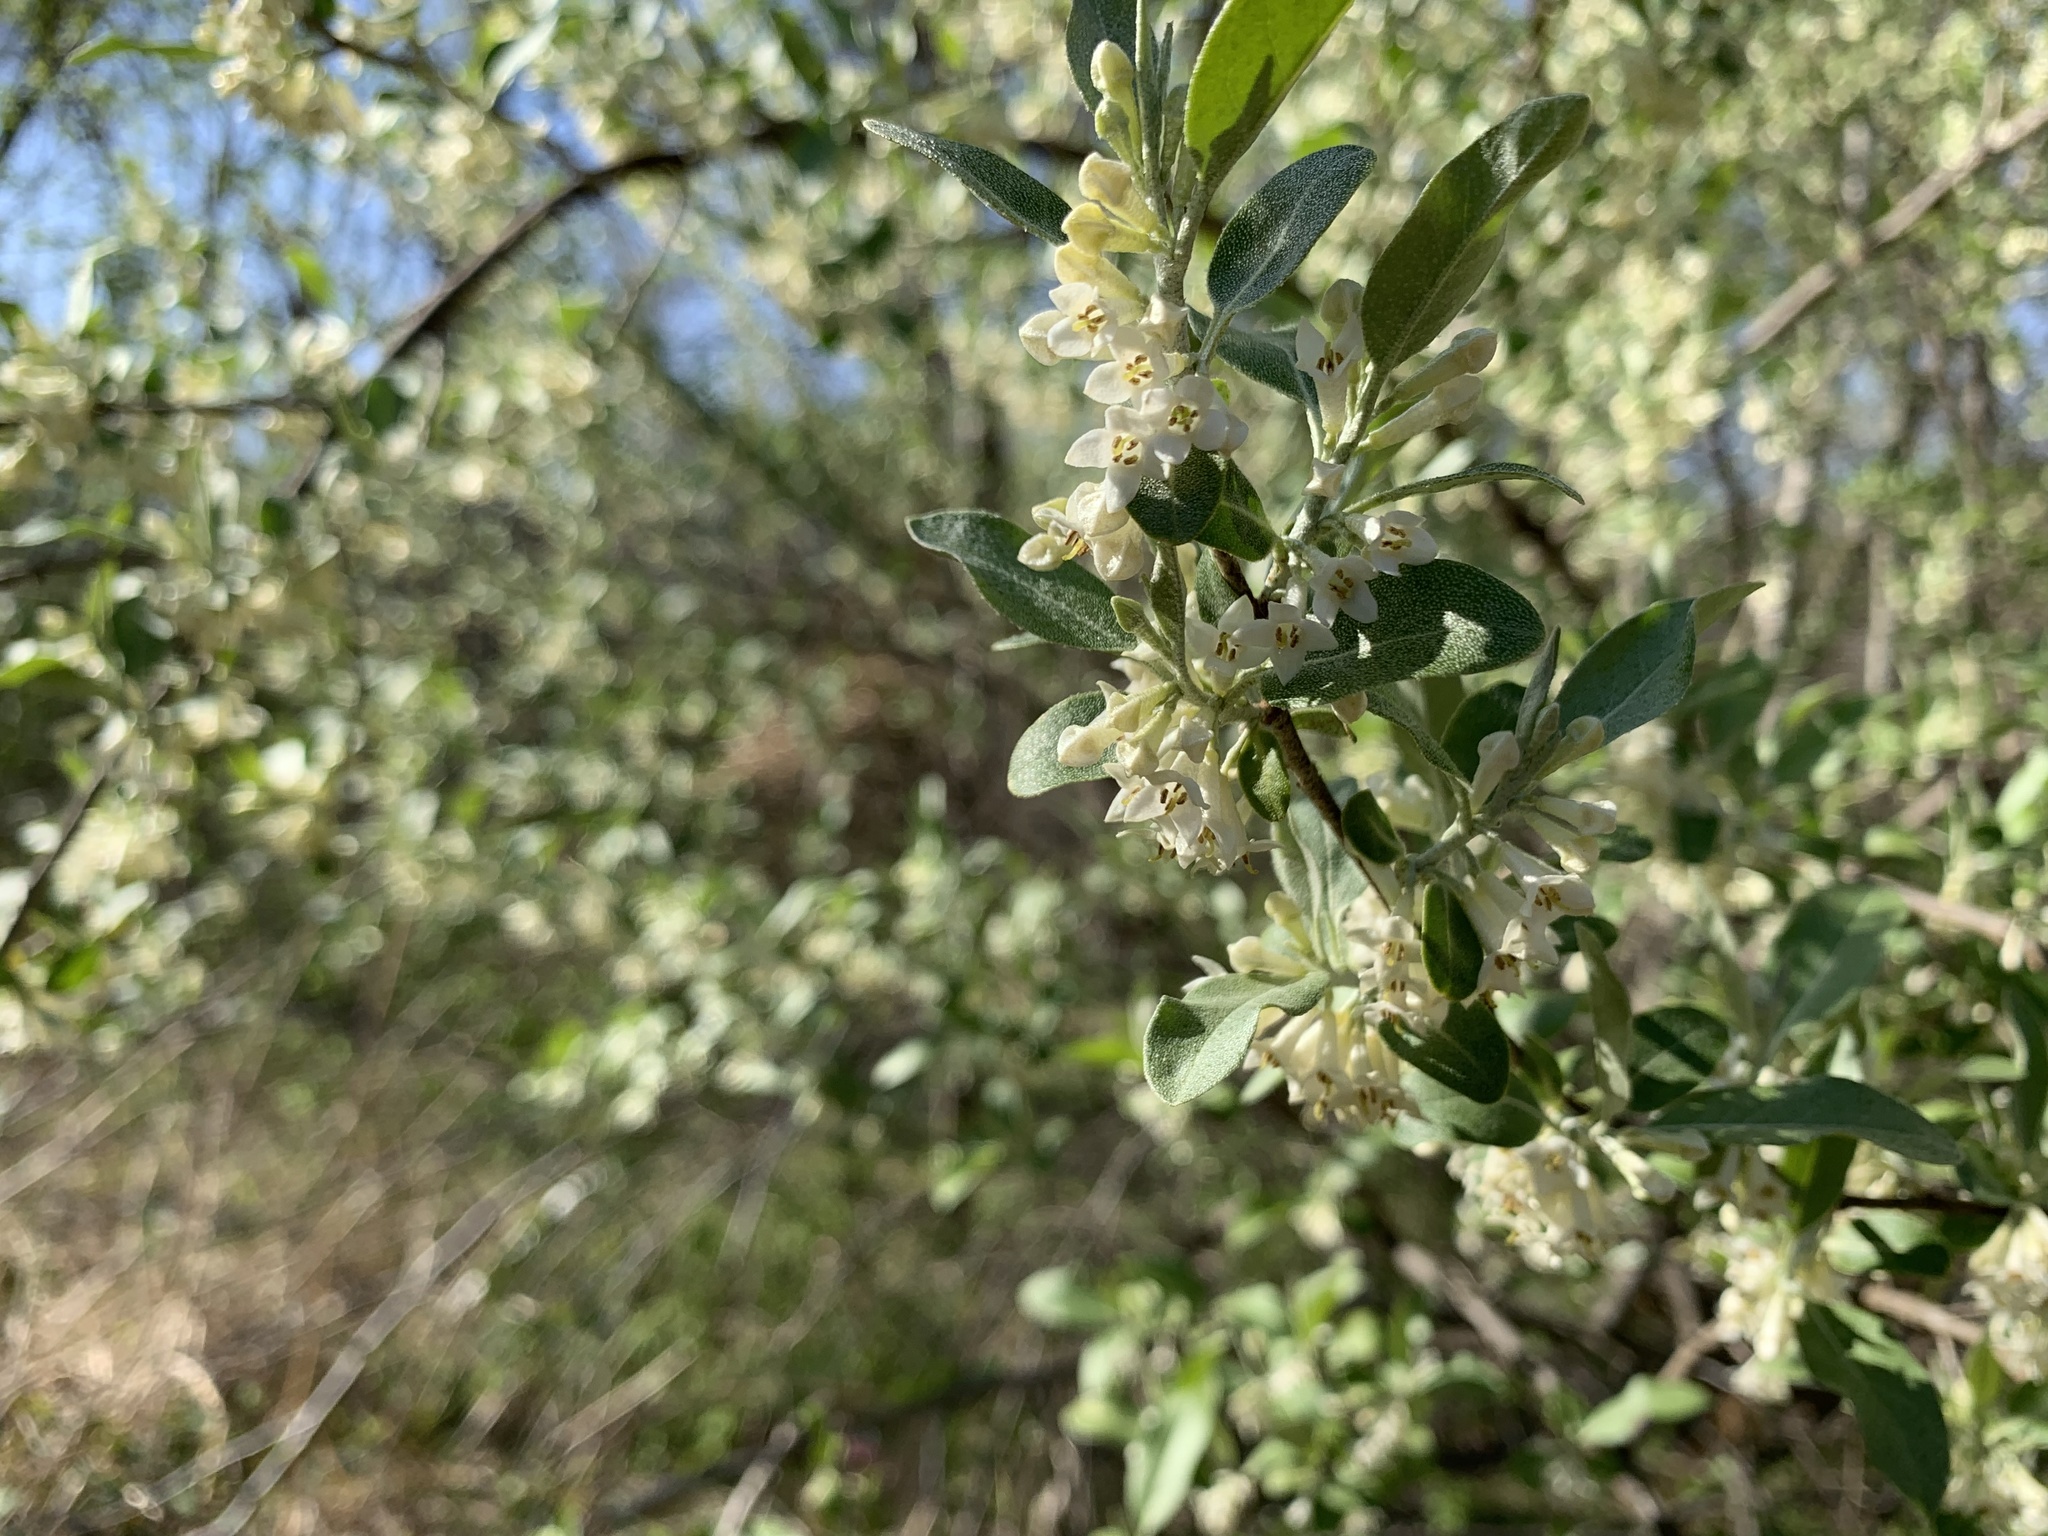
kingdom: Plantae
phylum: Tracheophyta
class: Magnoliopsida
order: Rosales
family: Elaeagnaceae
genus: Elaeagnus
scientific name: Elaeagnus umbellata
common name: Autumn olive
